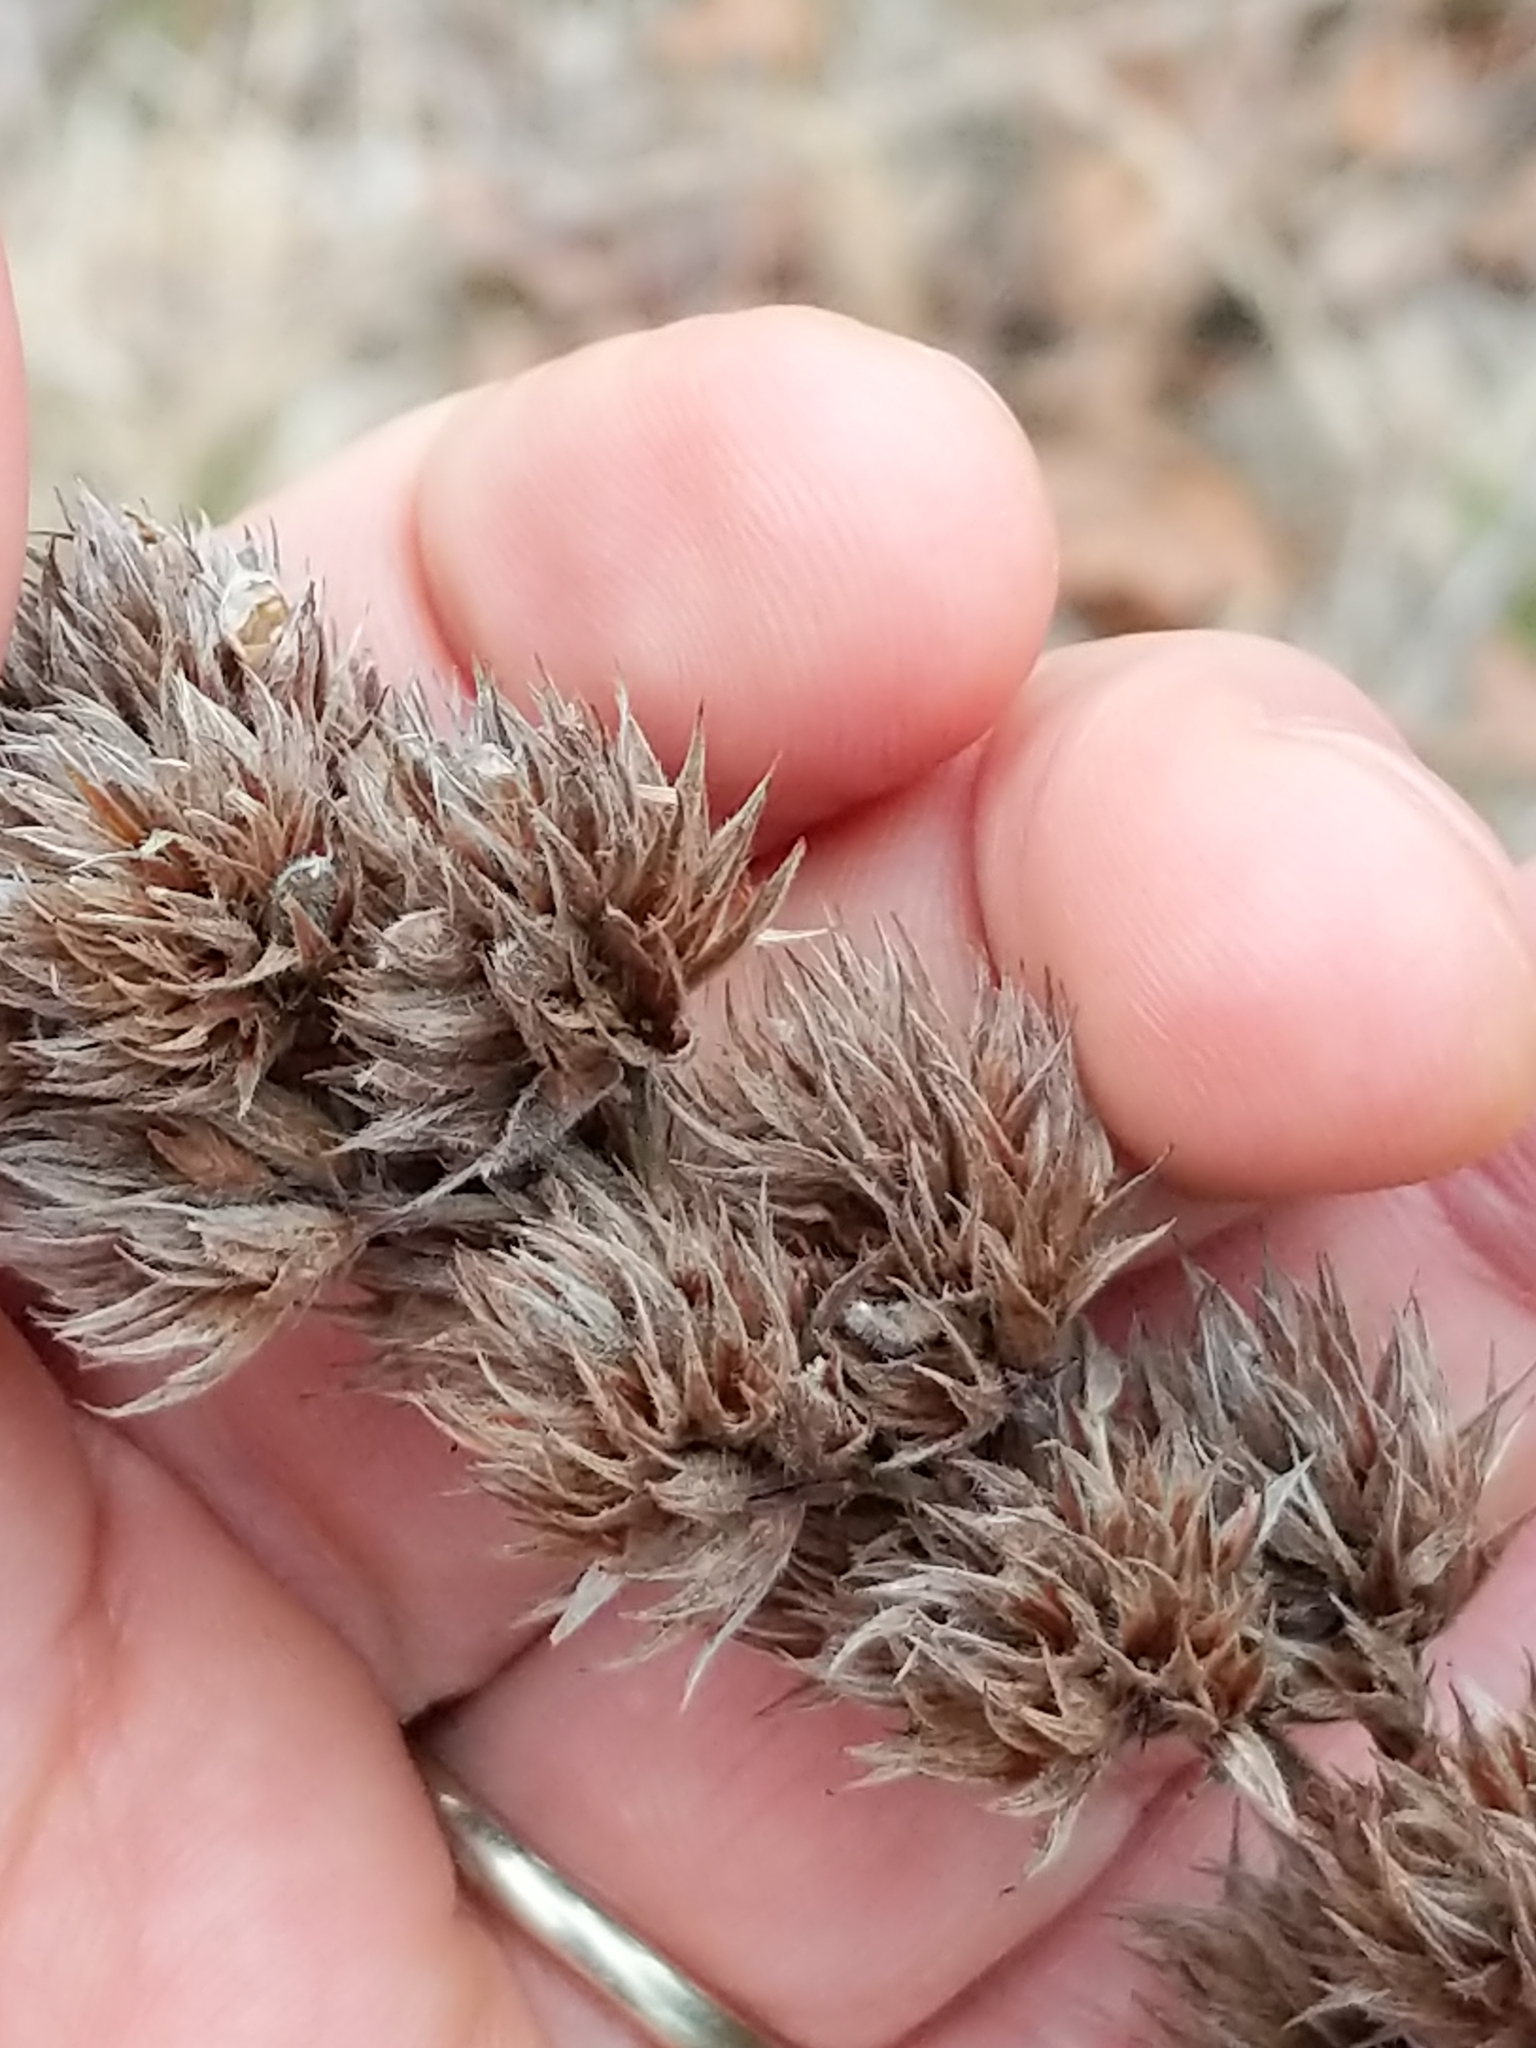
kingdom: Plantae
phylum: Tracheophyta
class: Magnoliopsida
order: Fabales
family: Fabaceae
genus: Lespedeza
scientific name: Lespedeza capitata
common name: Dusty clover
